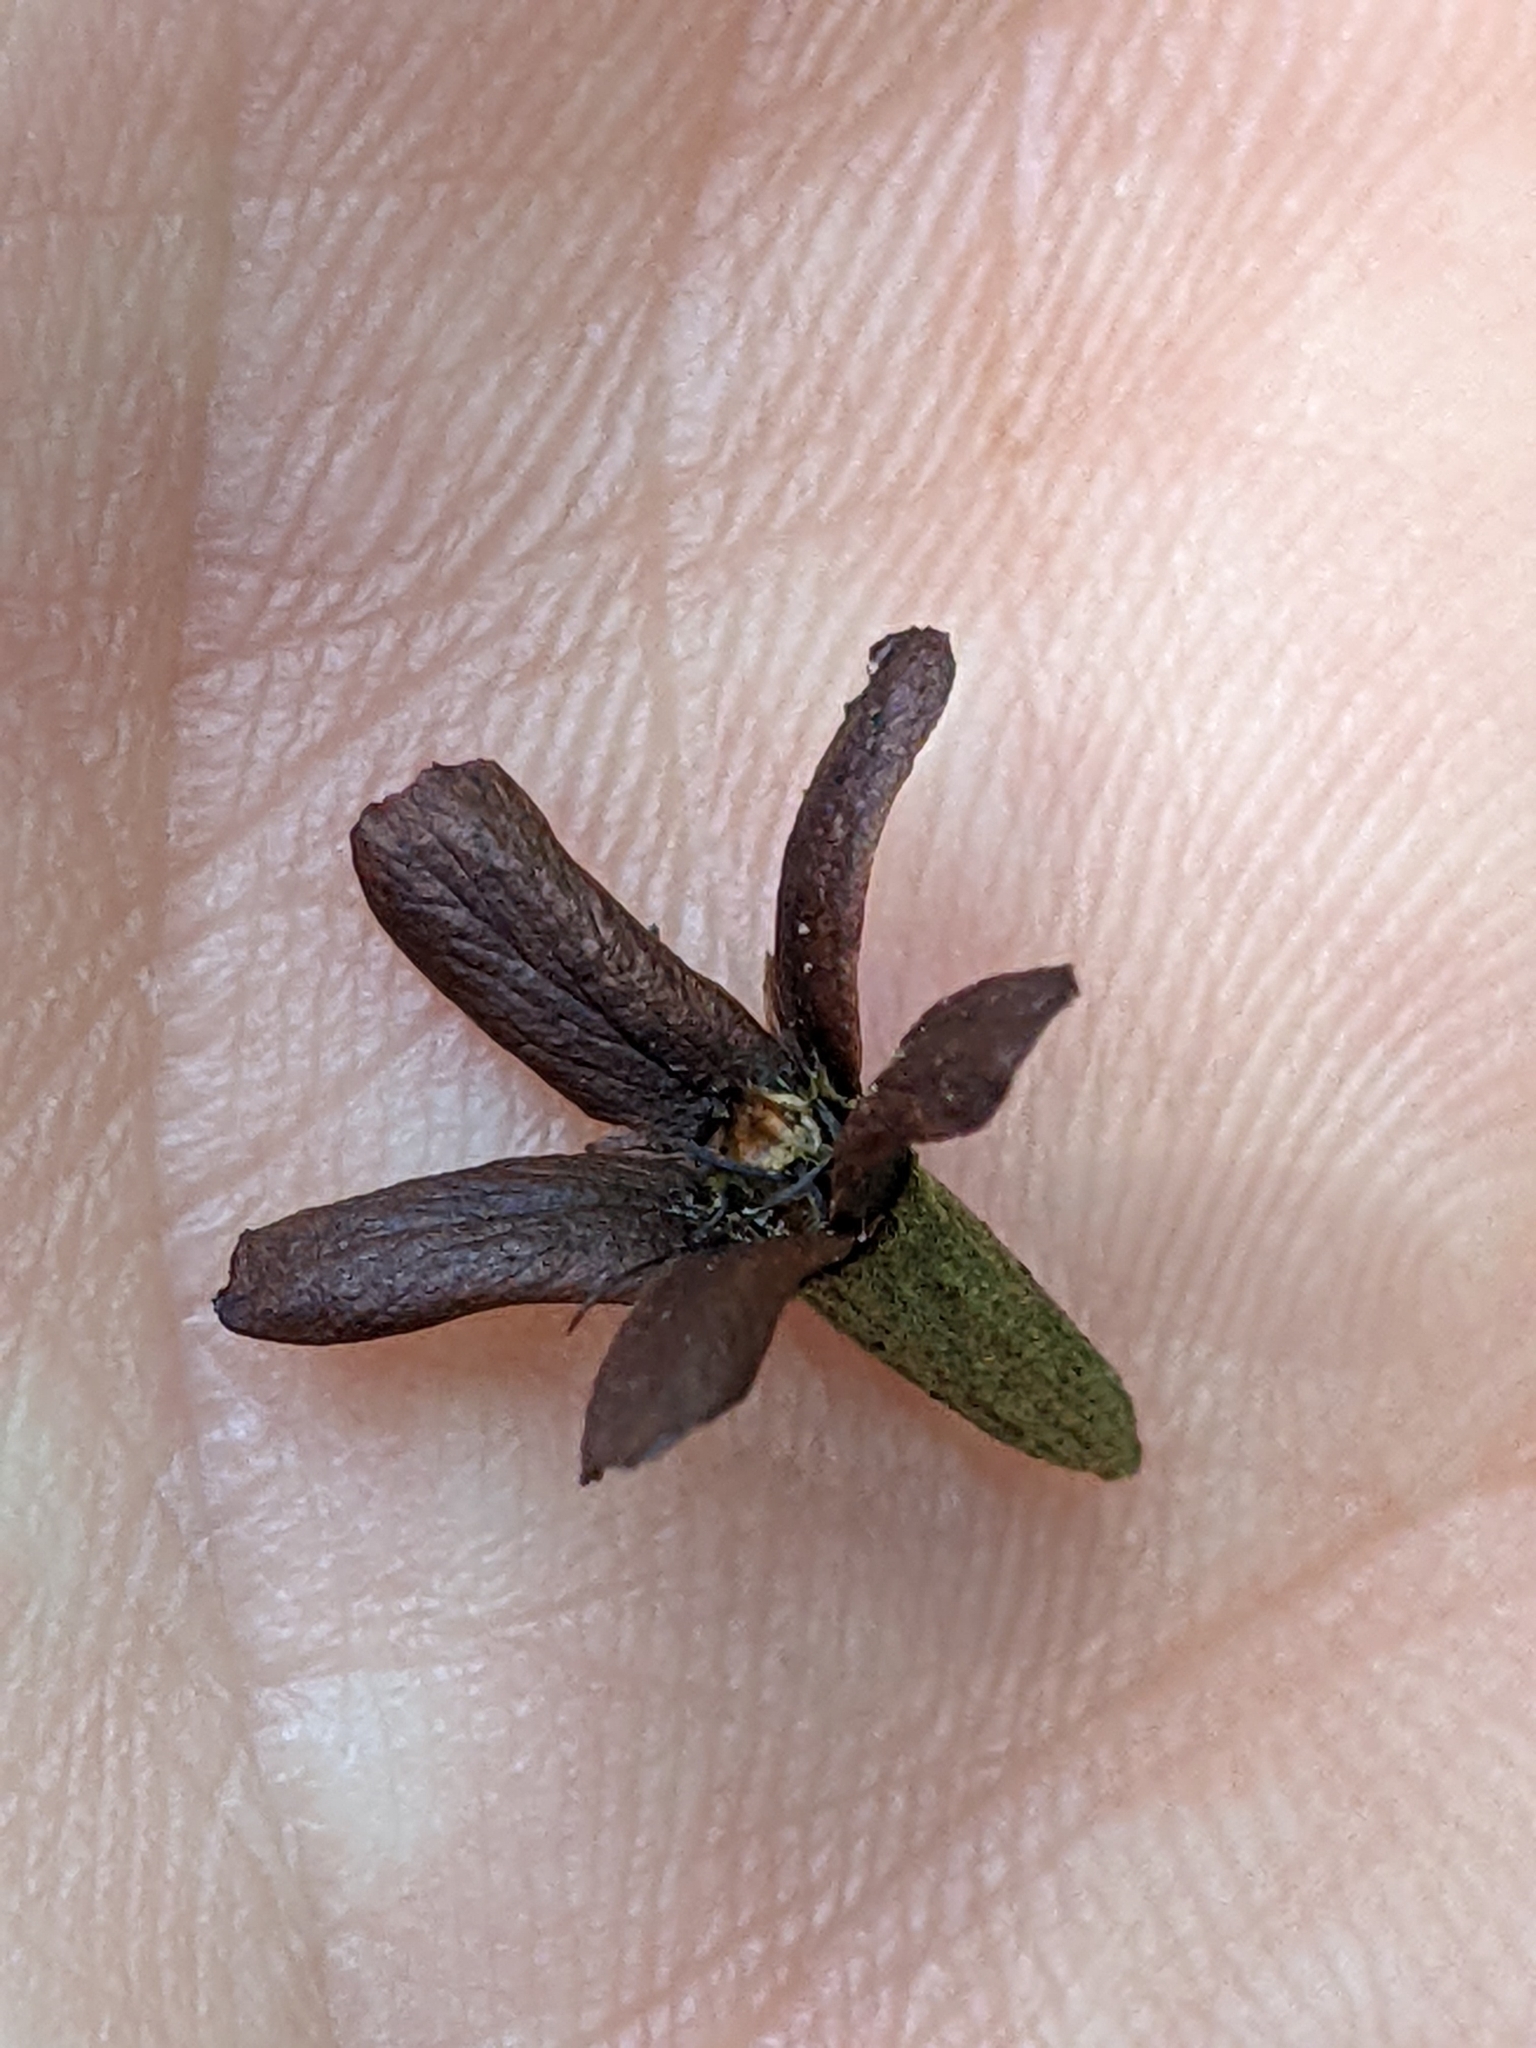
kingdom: Plantae
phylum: Tracheophyta
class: Magnoliopsida
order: Boraginales
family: Cordiaceae
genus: Cordia
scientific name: Cordia alliodora
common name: Spanish elm
